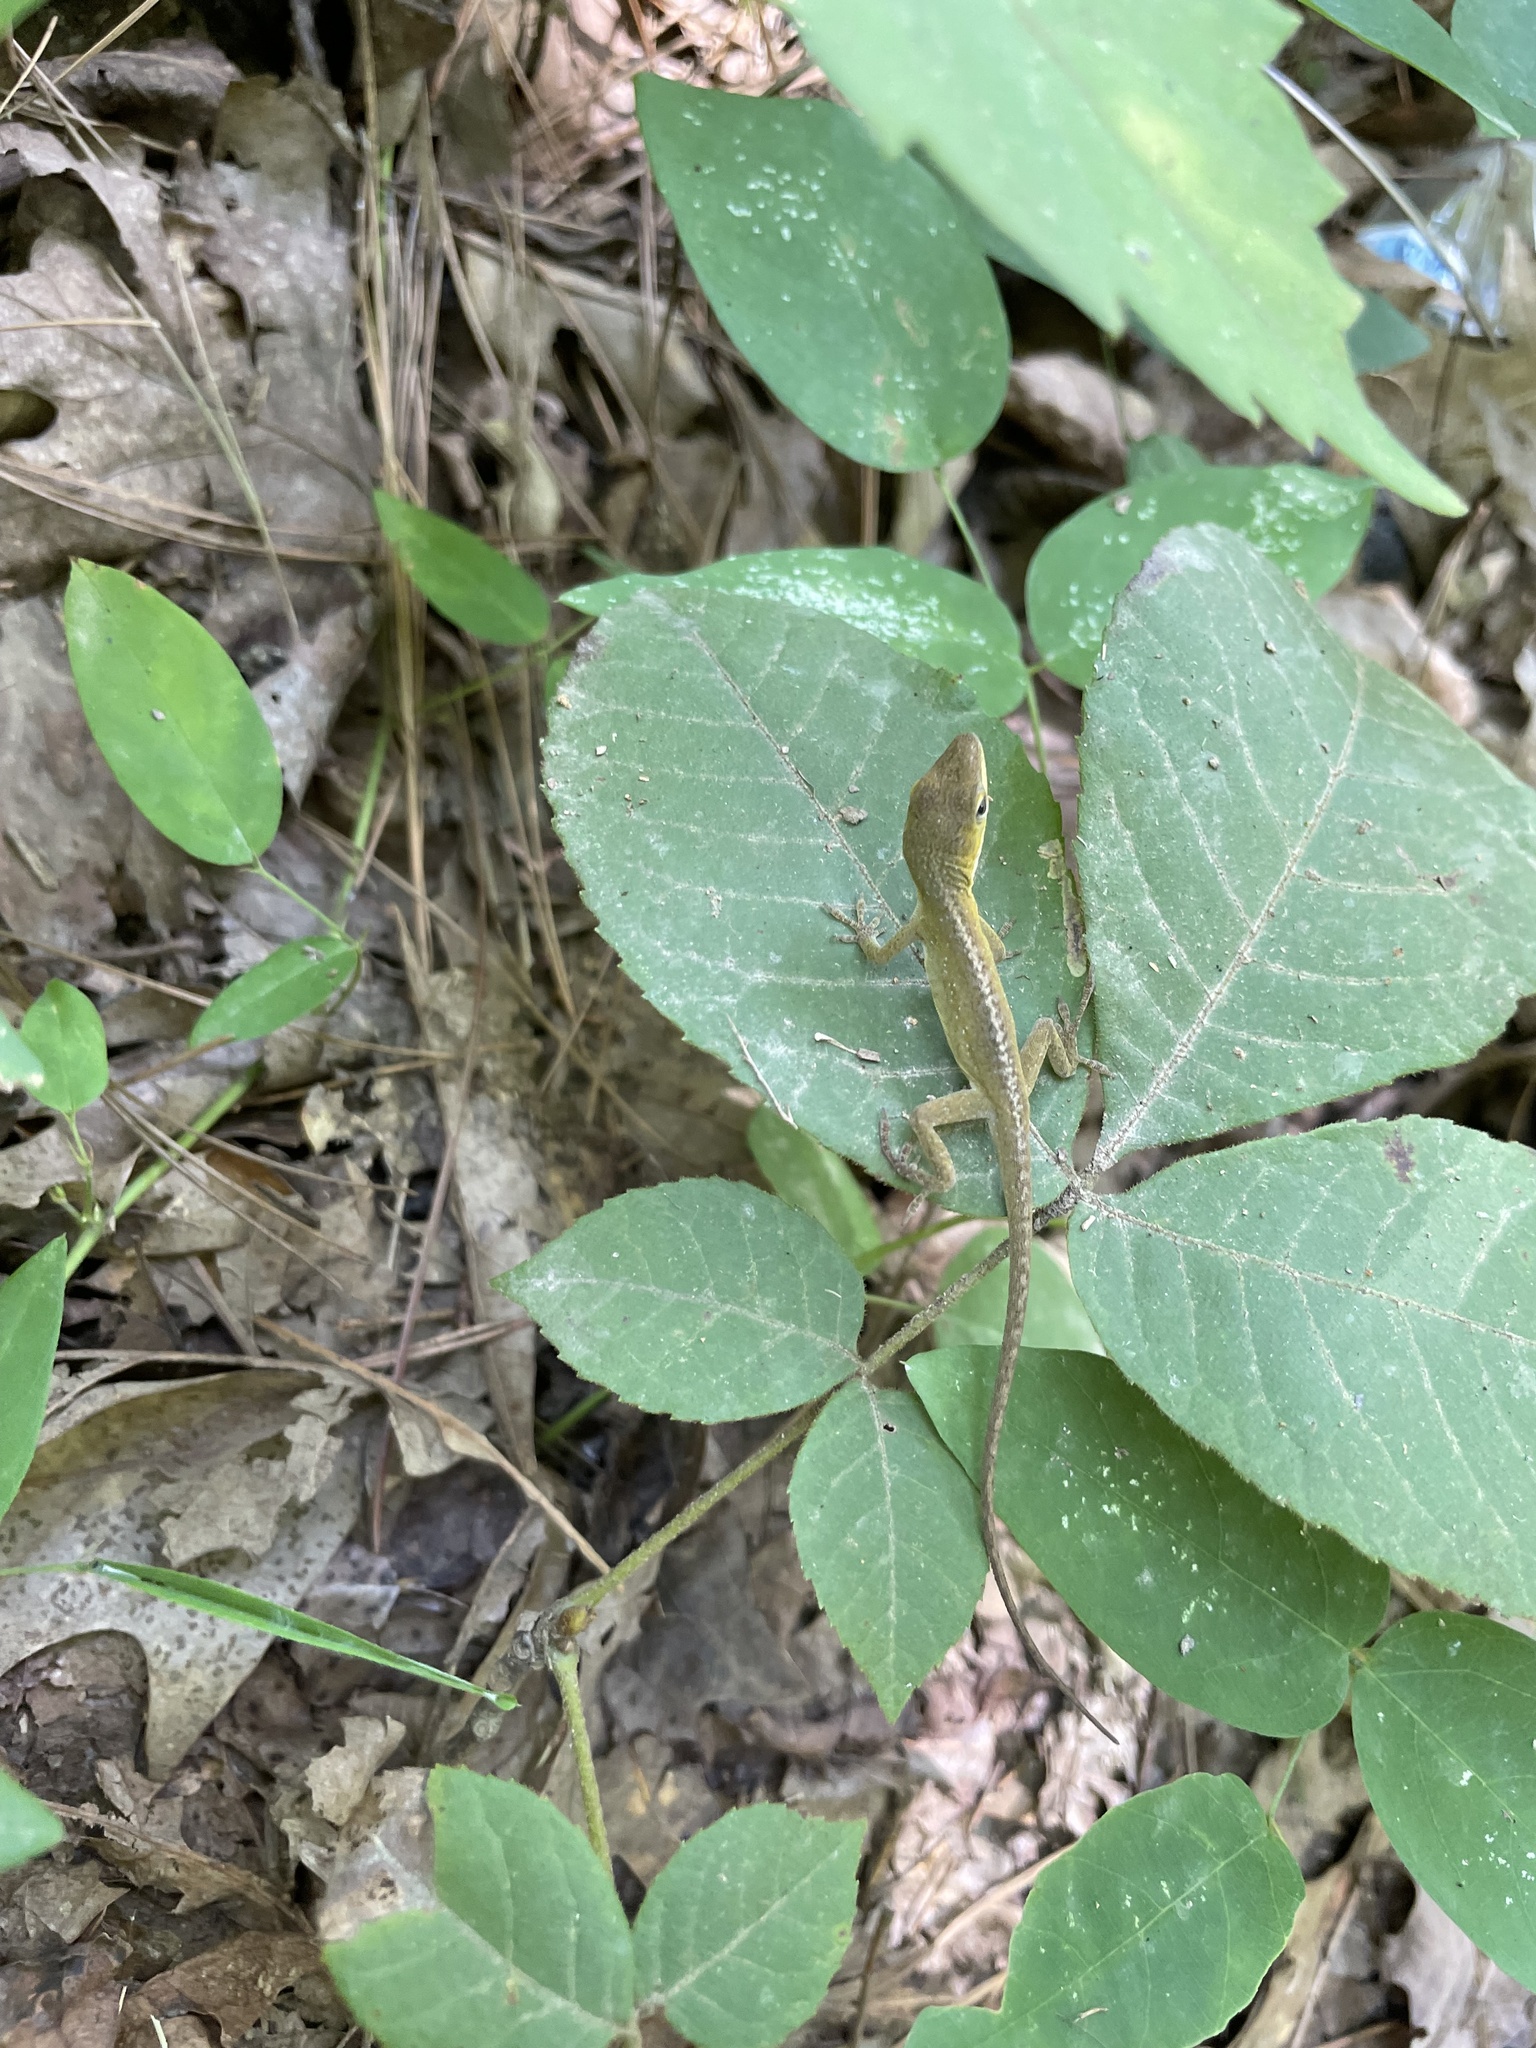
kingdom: Animalia
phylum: Chordata
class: Squamata
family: Dactyloidae
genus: Anolis
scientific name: Anolis carolinensis
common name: Green anole
